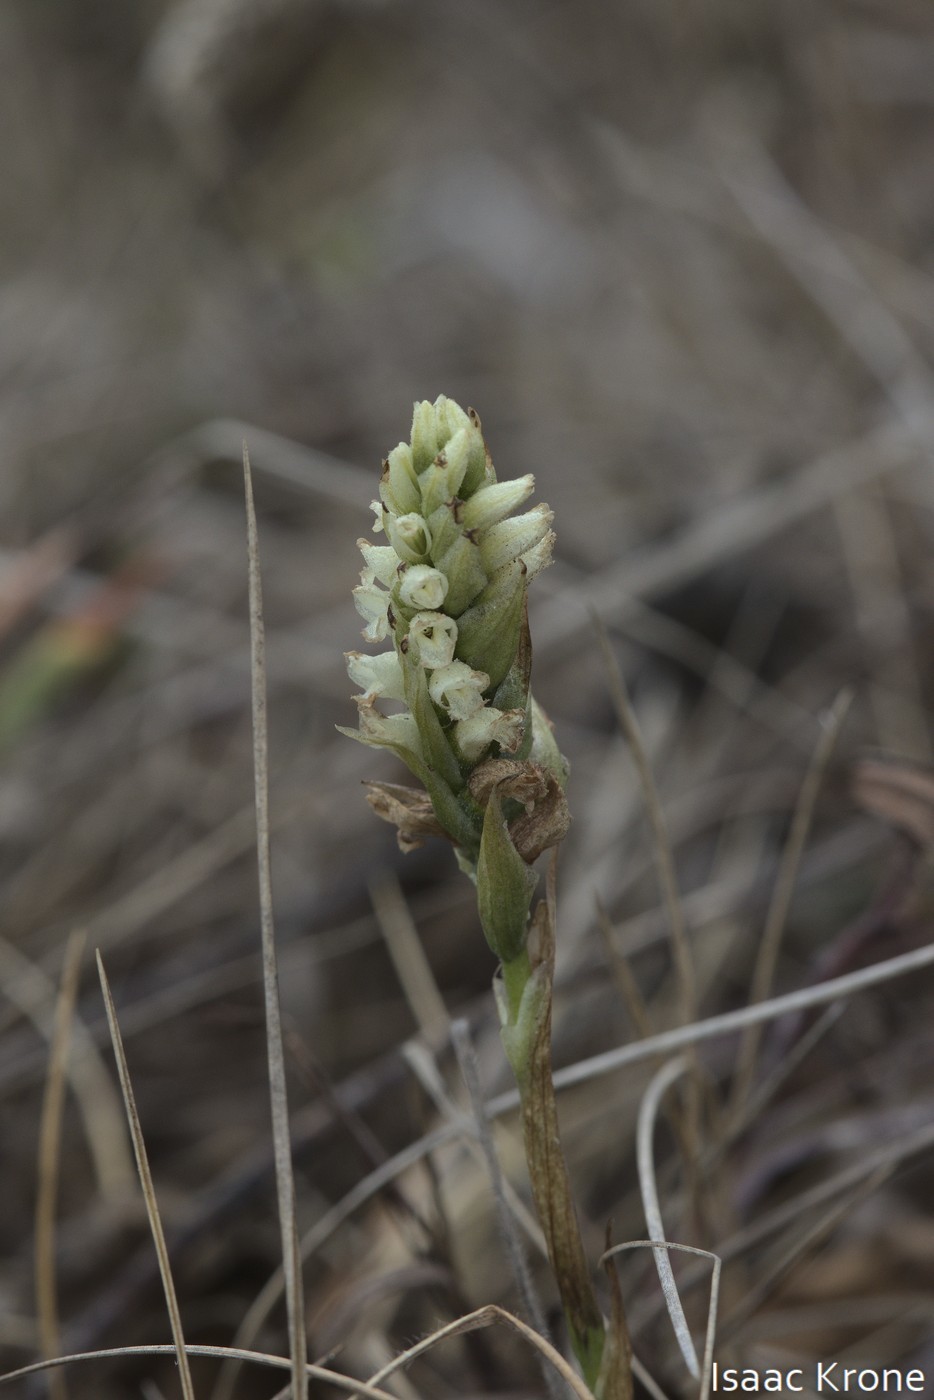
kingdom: Plantae
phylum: Tracheophyta
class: Liliopsida
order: Asparagales
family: Orchidaceae
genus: Spiranthes
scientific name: Spiranthes romanzoffiana
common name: Irish lady's-tresses
